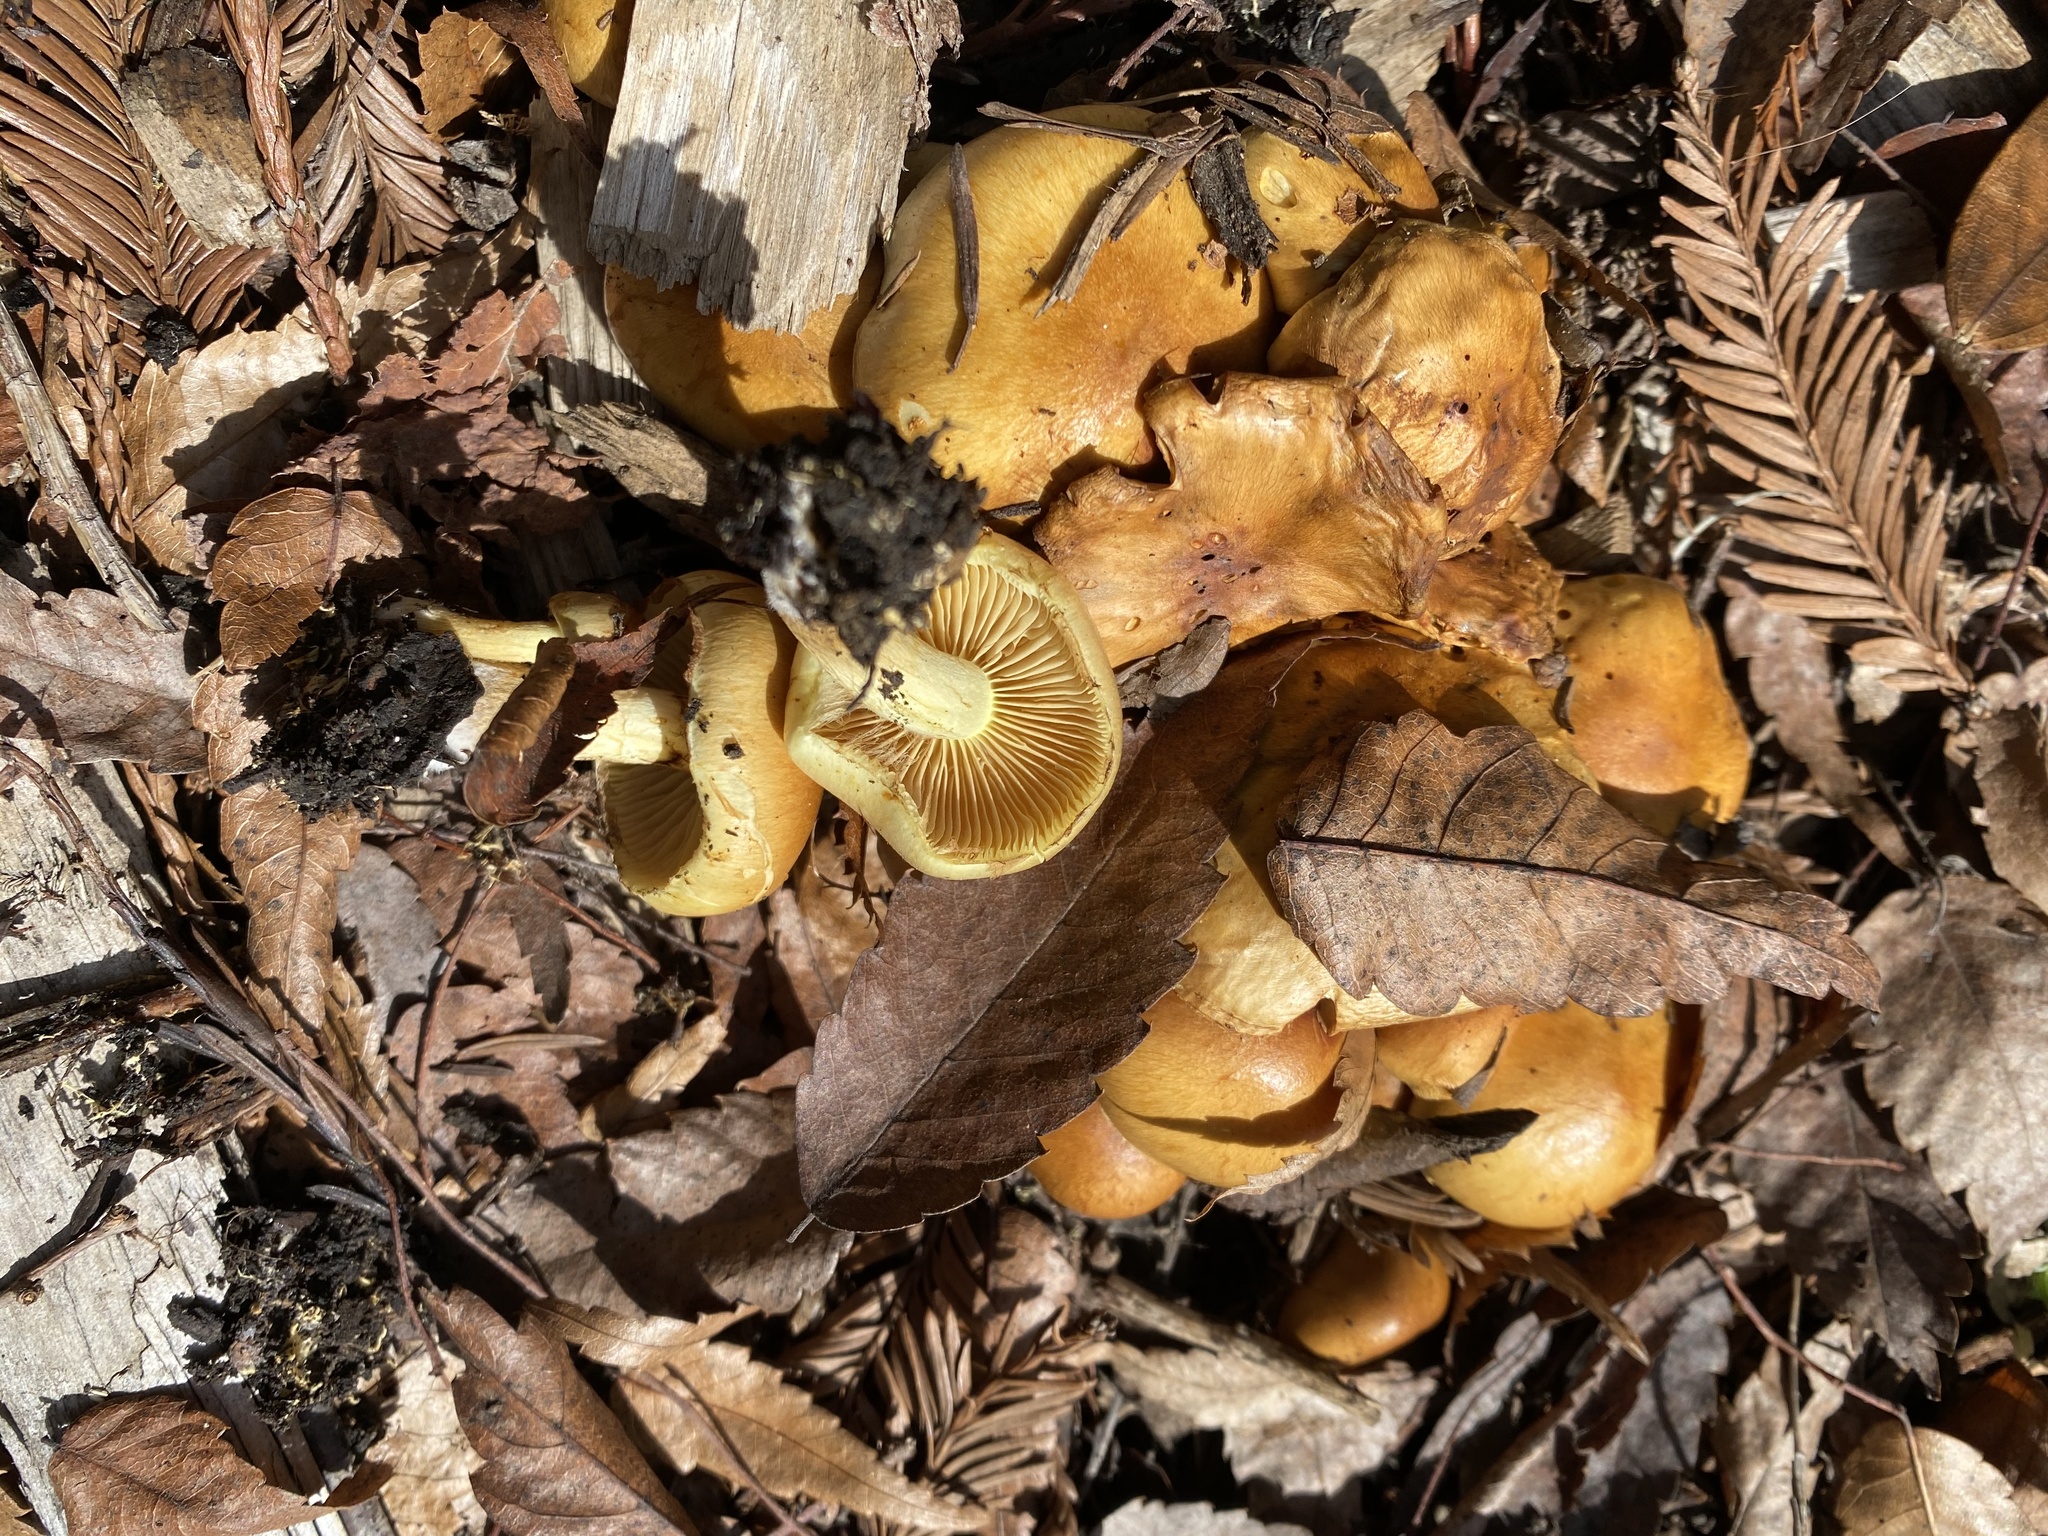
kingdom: Fungi
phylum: Basidiomycota
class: Agaricomycetes
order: Agaricales
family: Strophariaceae
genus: Pholiota
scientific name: Pholiota spumosa
